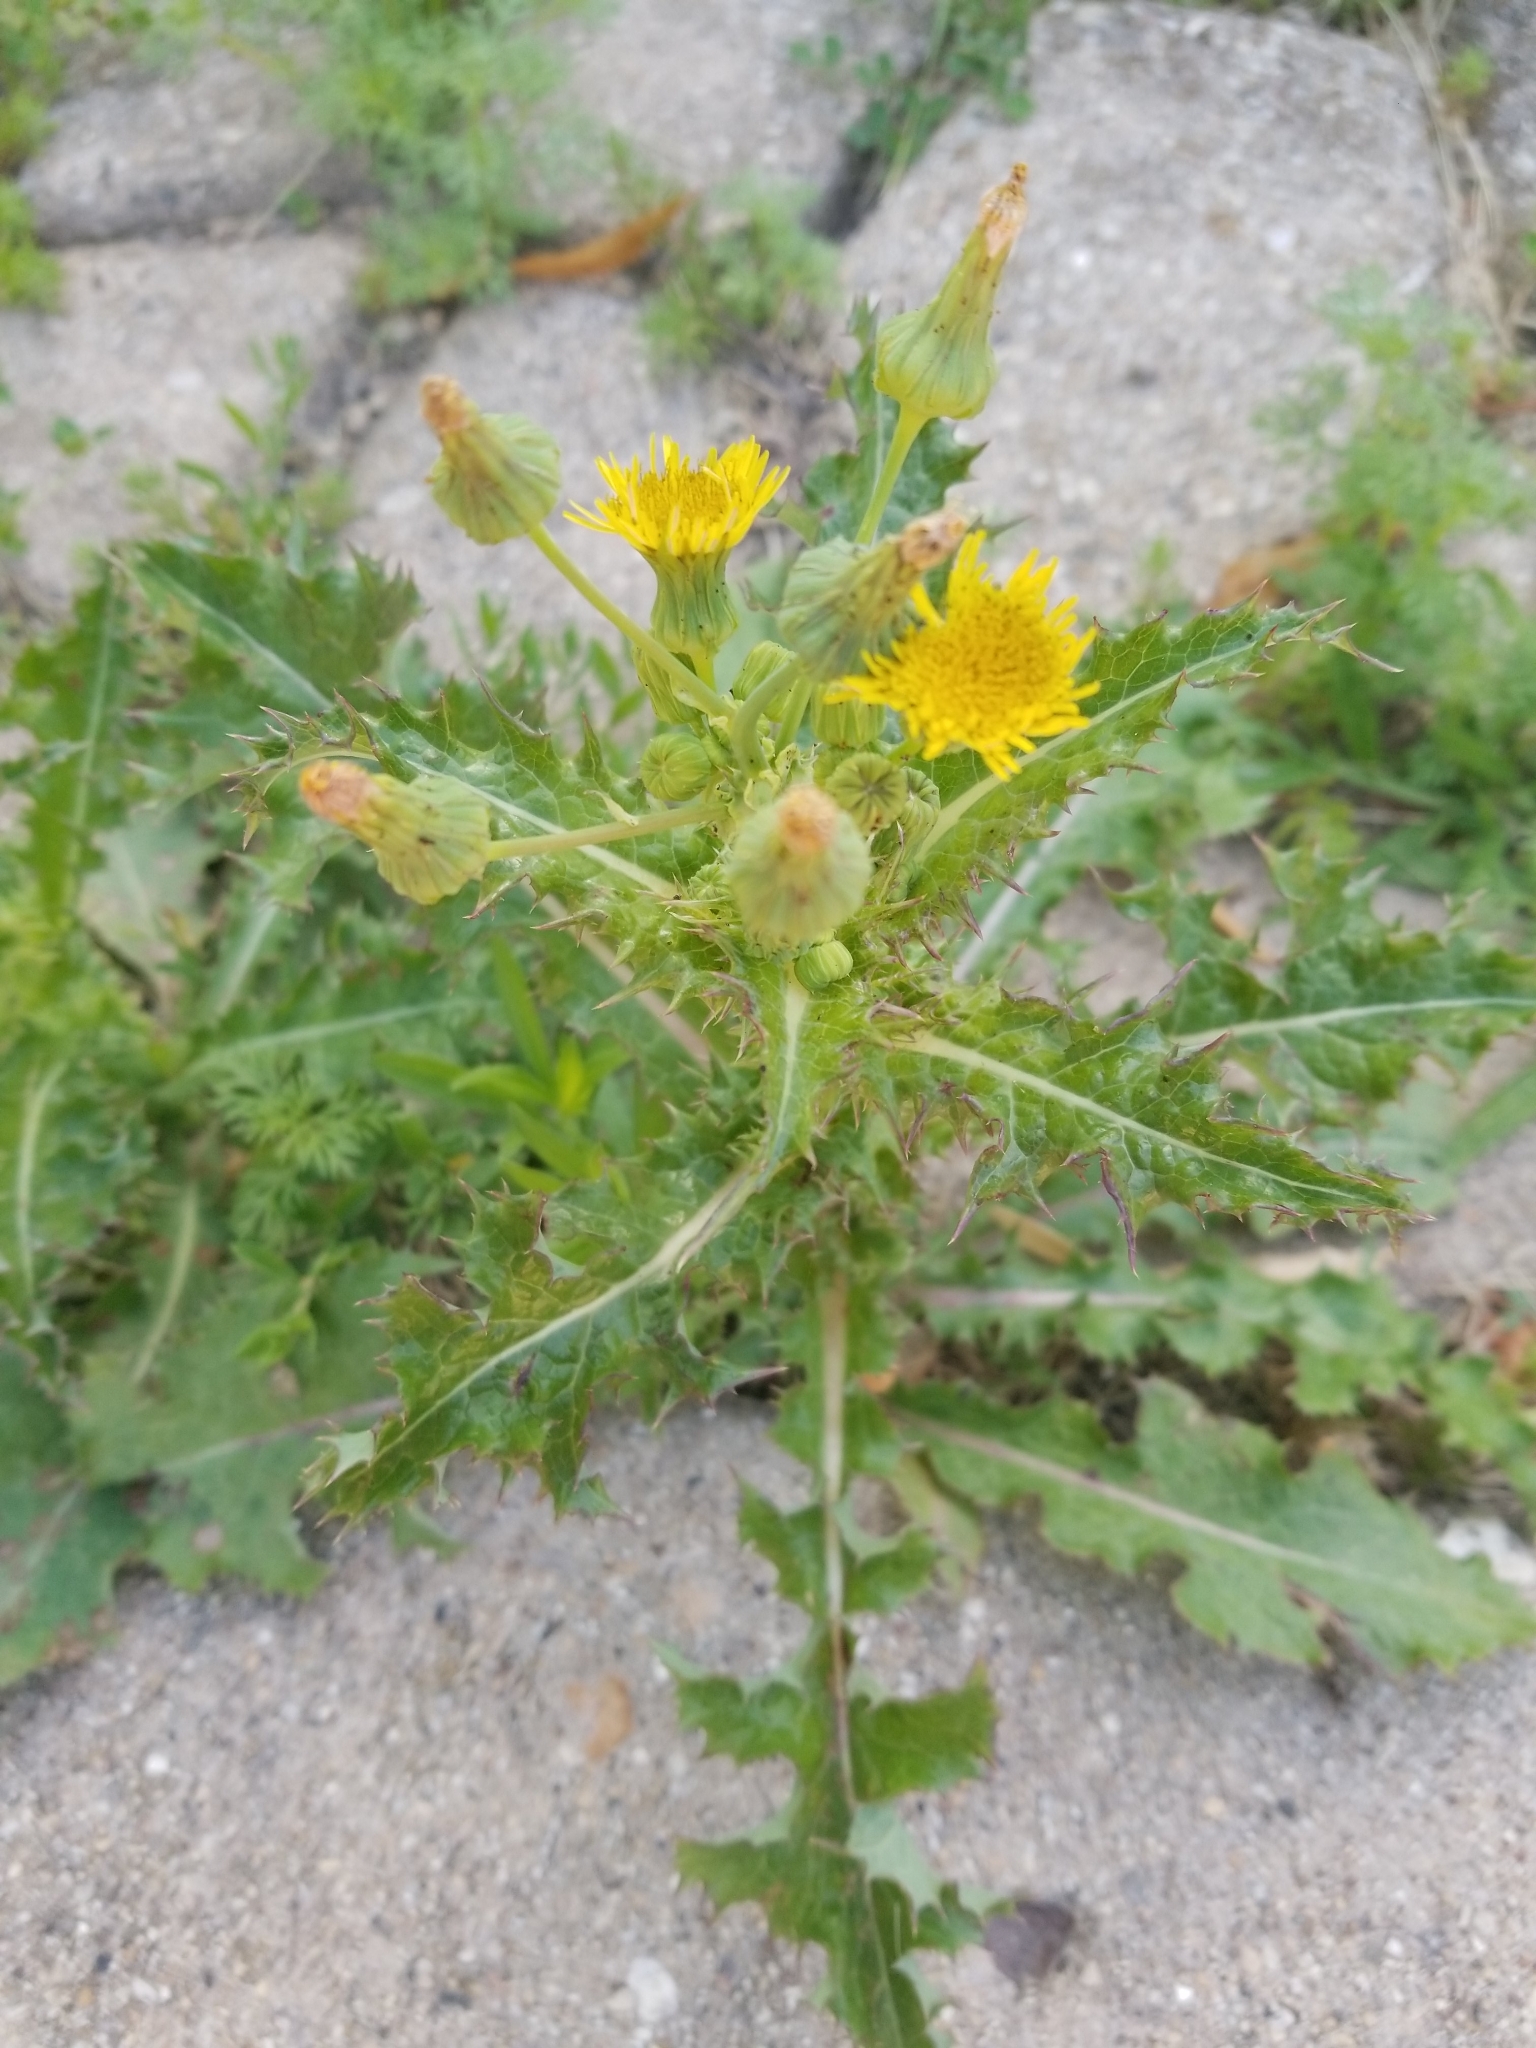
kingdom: Plantae
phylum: Tracheophyta
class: Magnoliopsida
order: Asterales
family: Asteraceae
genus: Sonchus
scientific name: Sonchus asper
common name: Prickly sow-thistle
